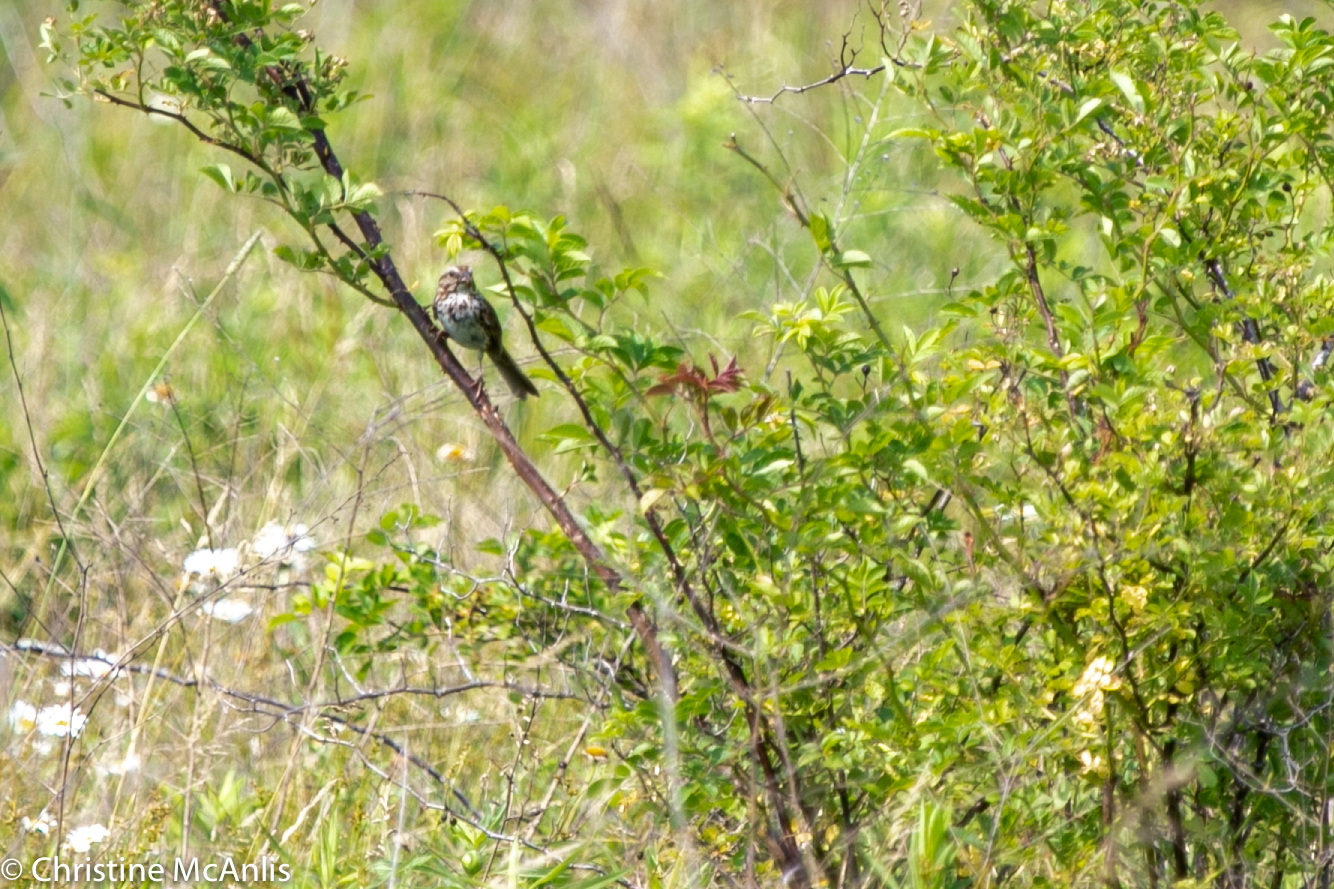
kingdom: Animalia
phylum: Chordata
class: Aves
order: Passeriformes
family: Passerellidae
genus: Melospiza
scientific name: Melospiza melodia
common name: Song sparrow
